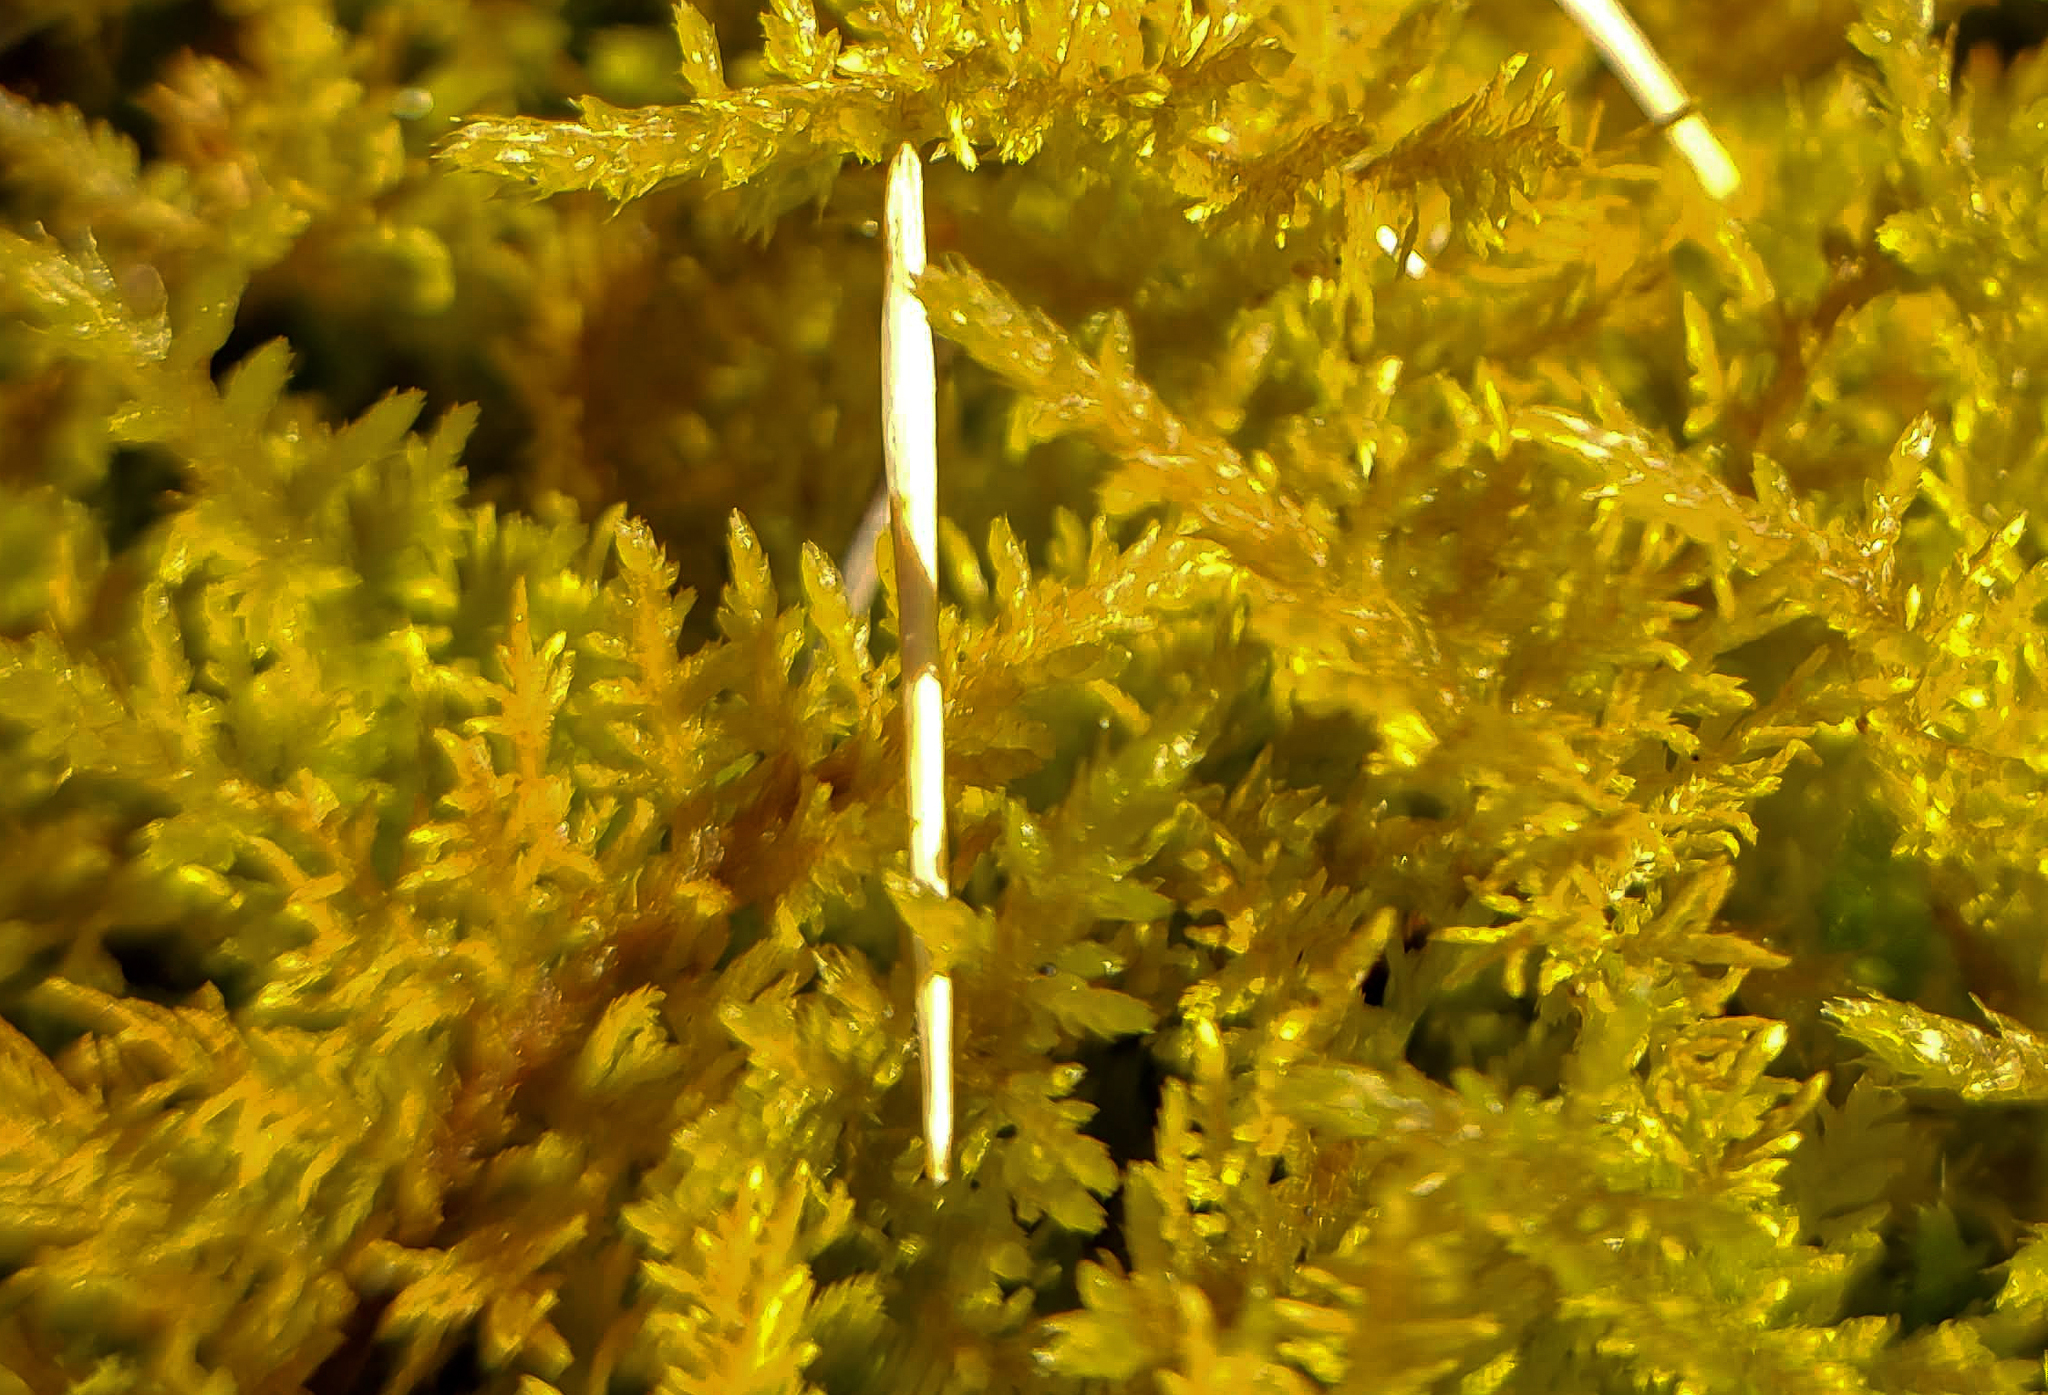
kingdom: Plantae
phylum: Bryophyta
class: Bryopsida
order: Hypnales
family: Thuidiaceae
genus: Thuidium
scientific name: Thuidium delicatulum
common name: Delicate fern moss
